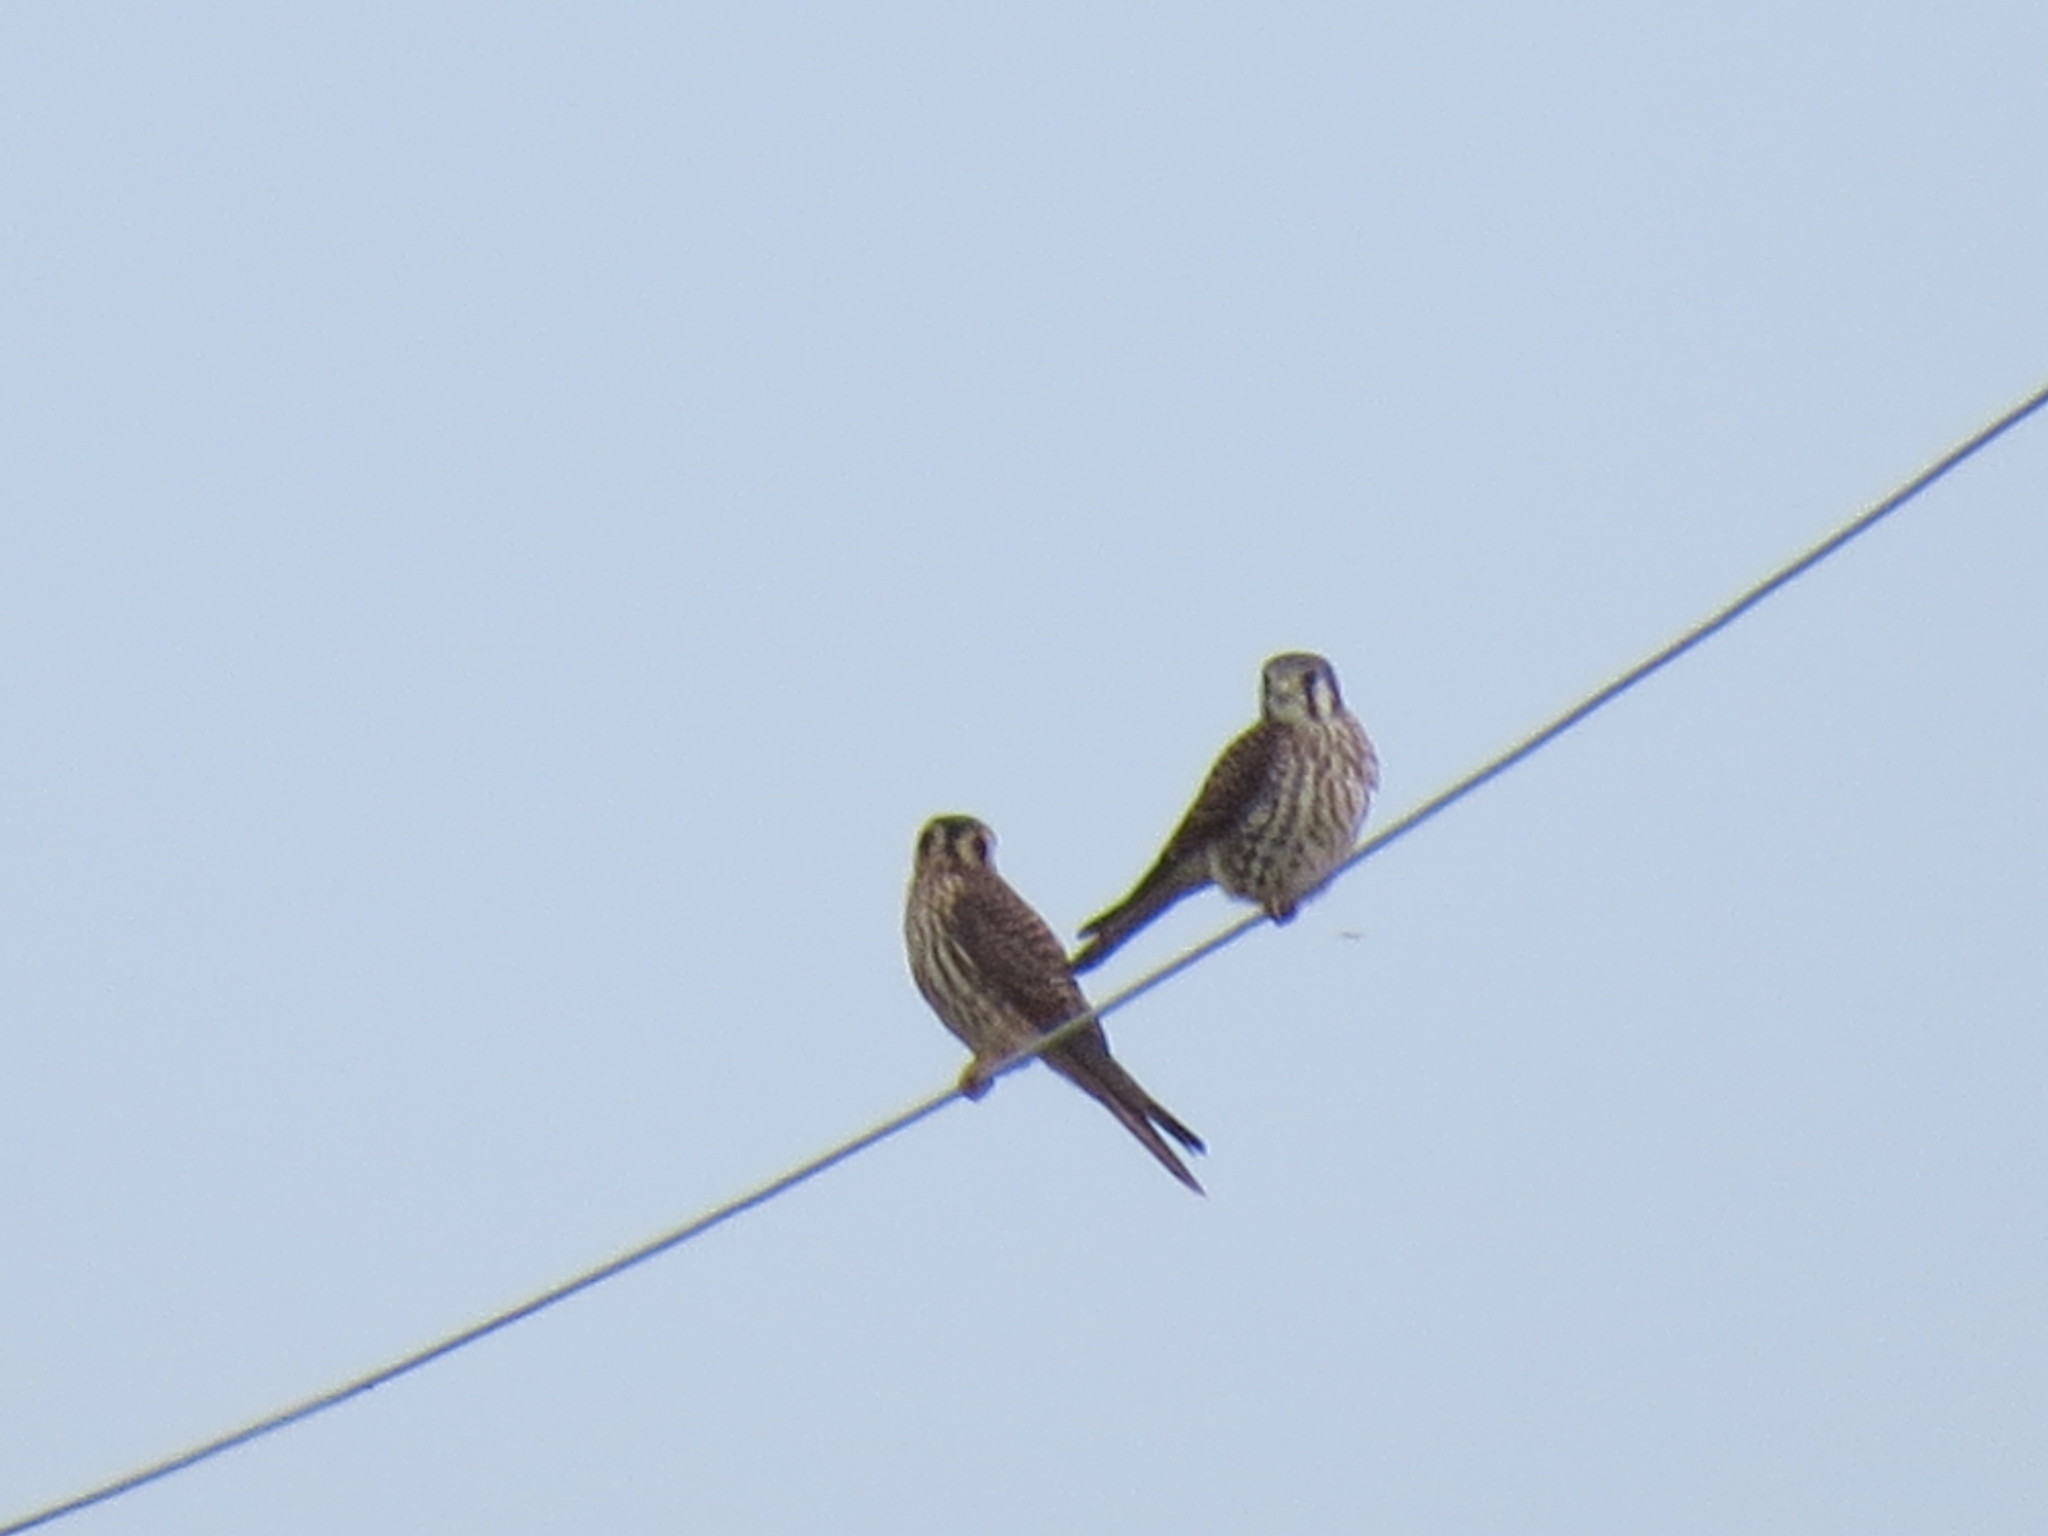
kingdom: Animalia
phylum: Chordata
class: Aves
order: Falconiformes
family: Falconidae
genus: Falco
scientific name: Falco sparverius
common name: American kestrel
